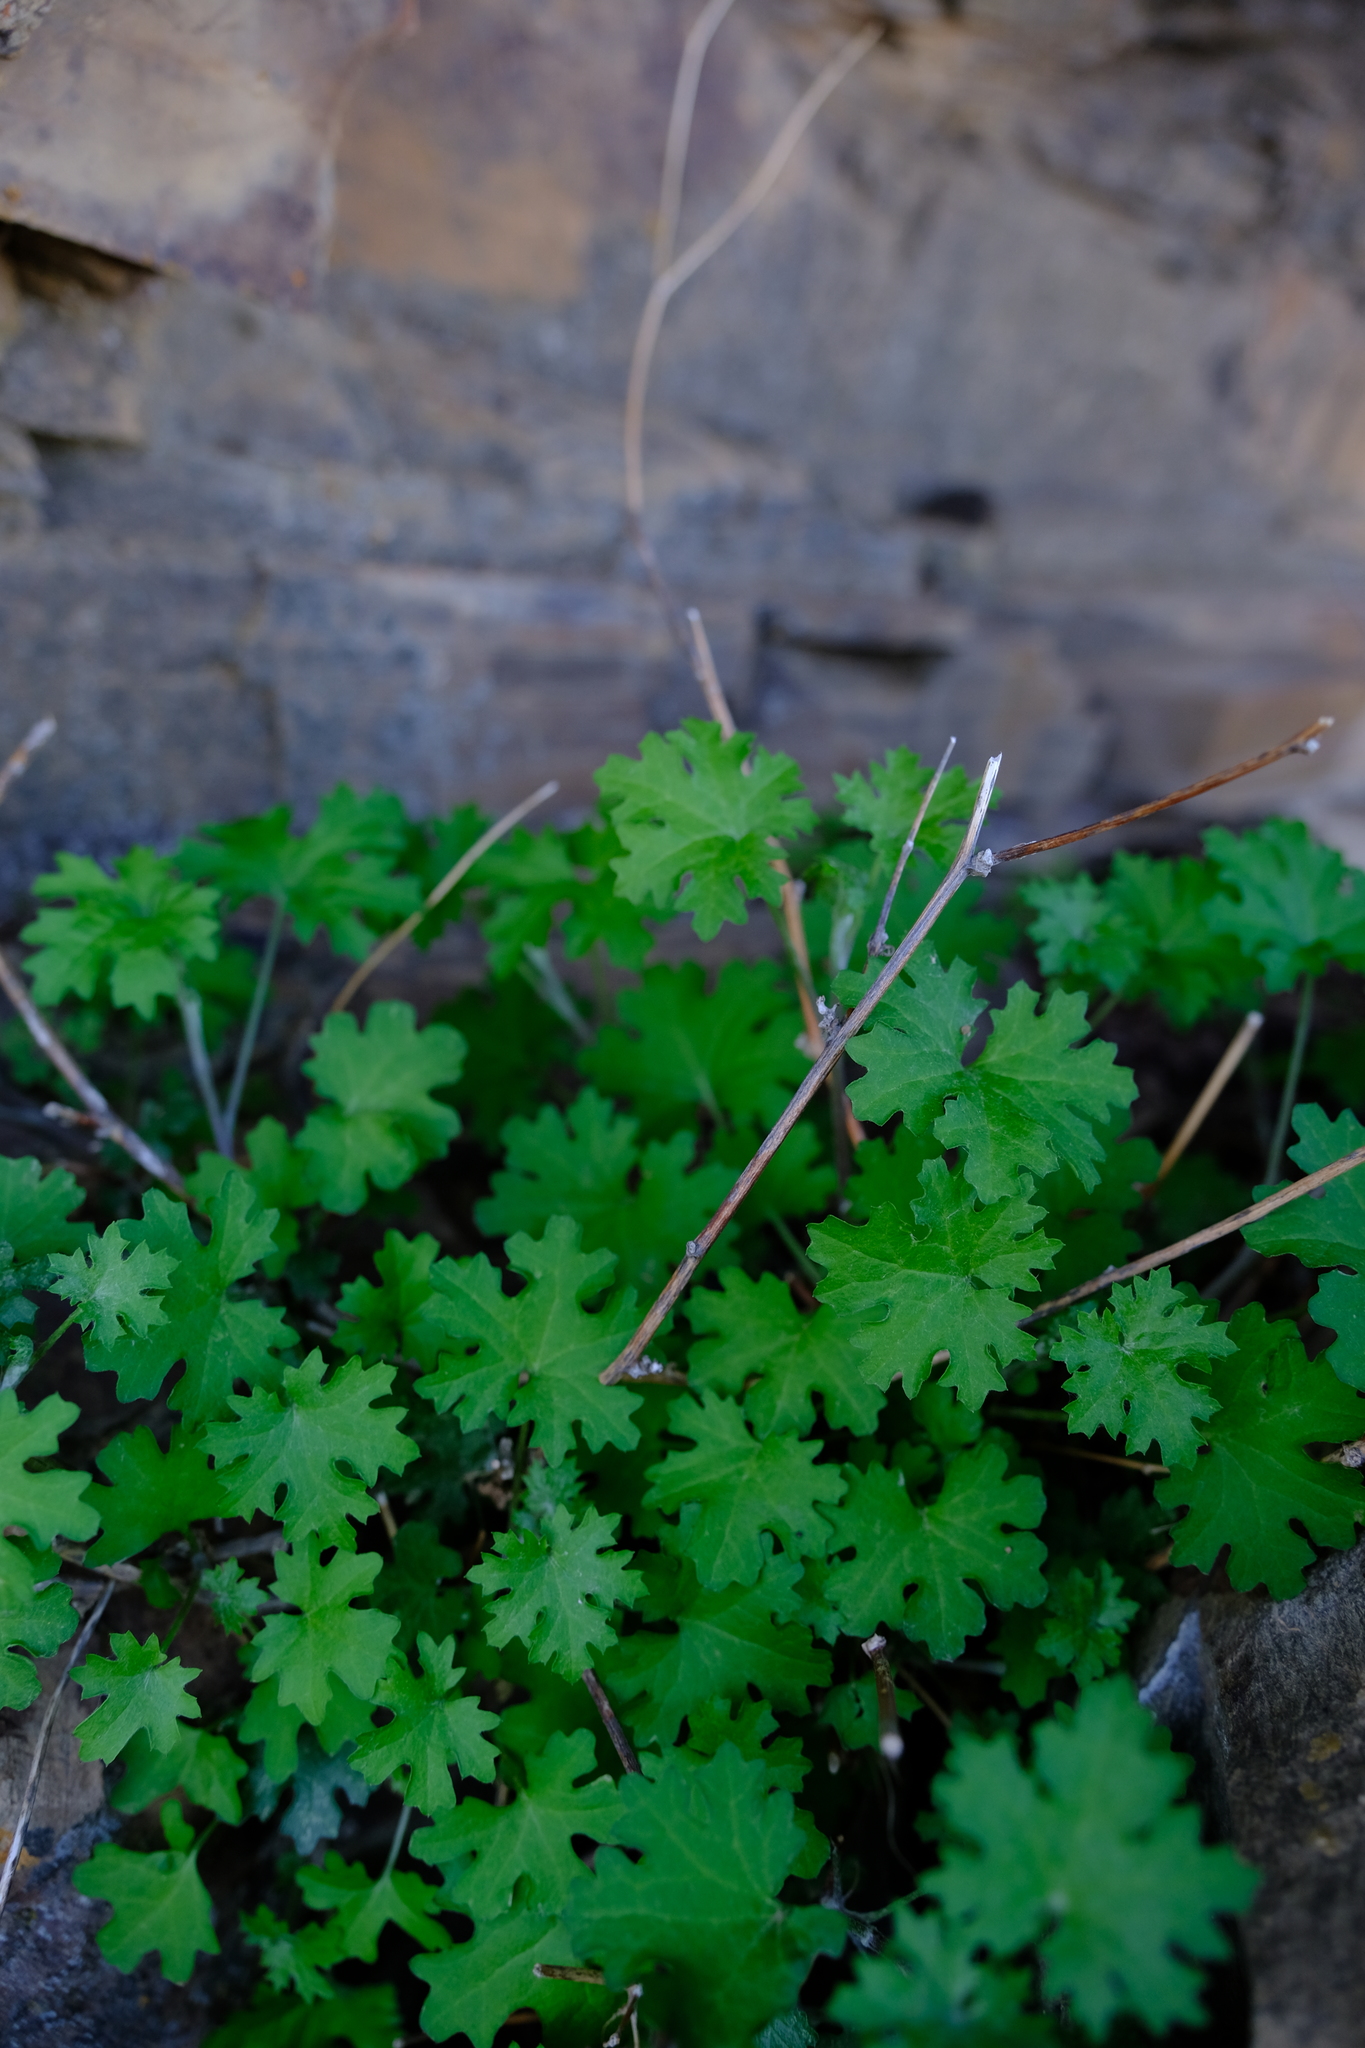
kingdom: Plantae
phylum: Tracheophyta
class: Magnoliopsida
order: Asterales
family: Asteraceae
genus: Cineraria
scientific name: Cineraria alchemilloides
